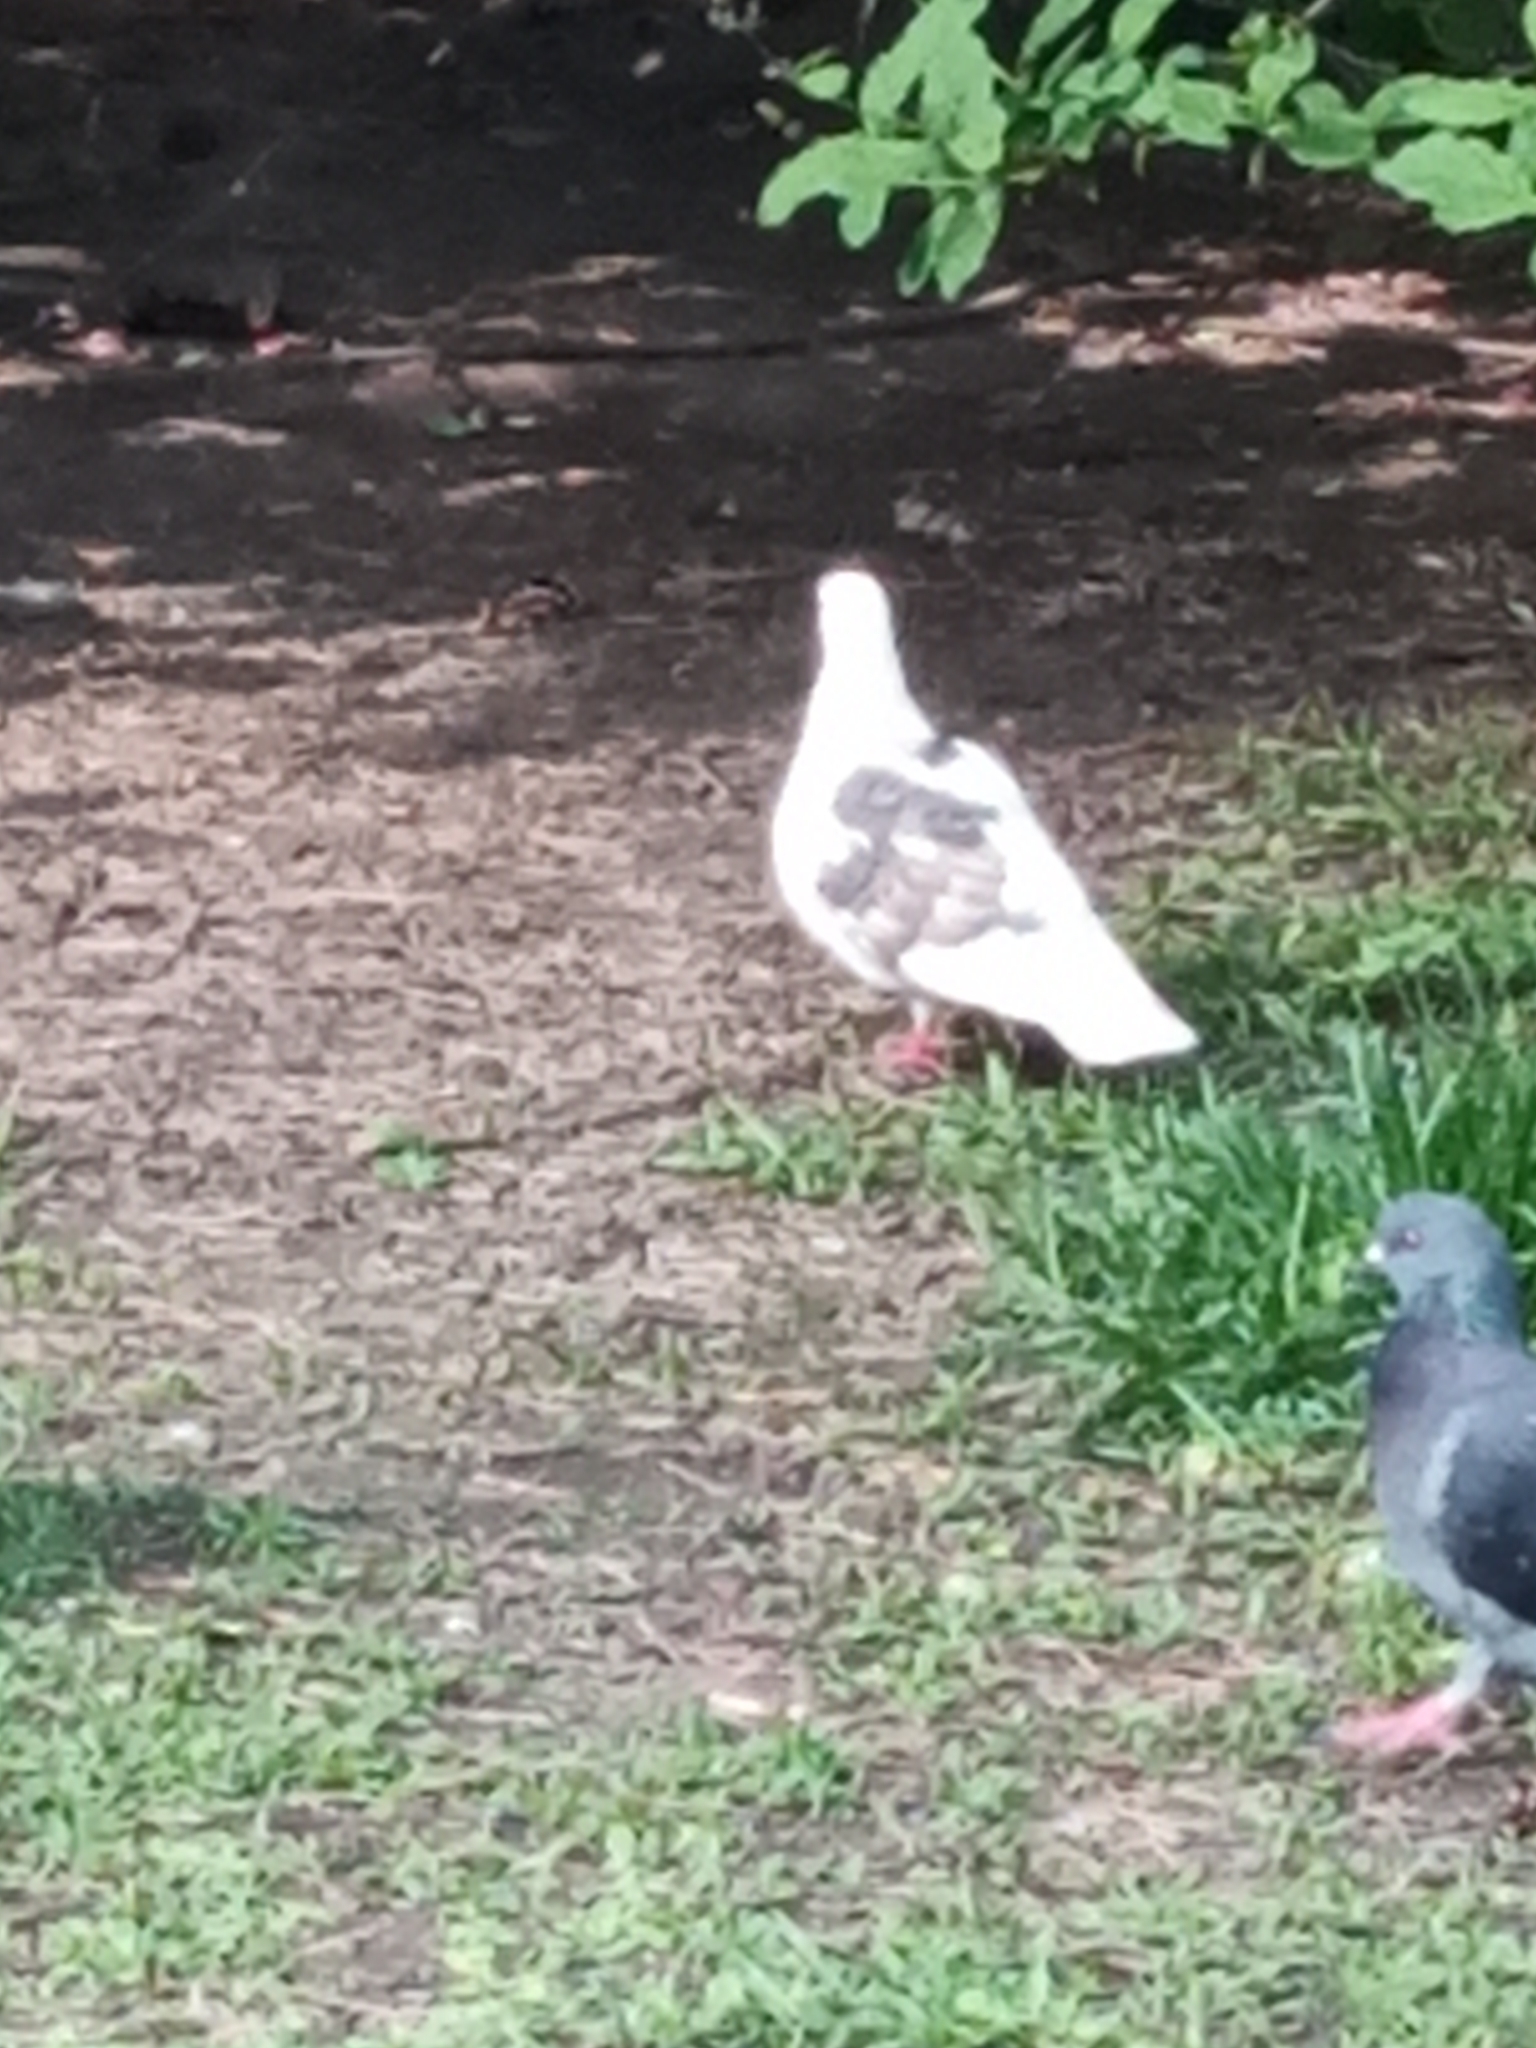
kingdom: Animalia
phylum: Chordata
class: Aves
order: Columbiformes
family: Columbidae
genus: Columba
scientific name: Columba livia
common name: Rock pigeon
